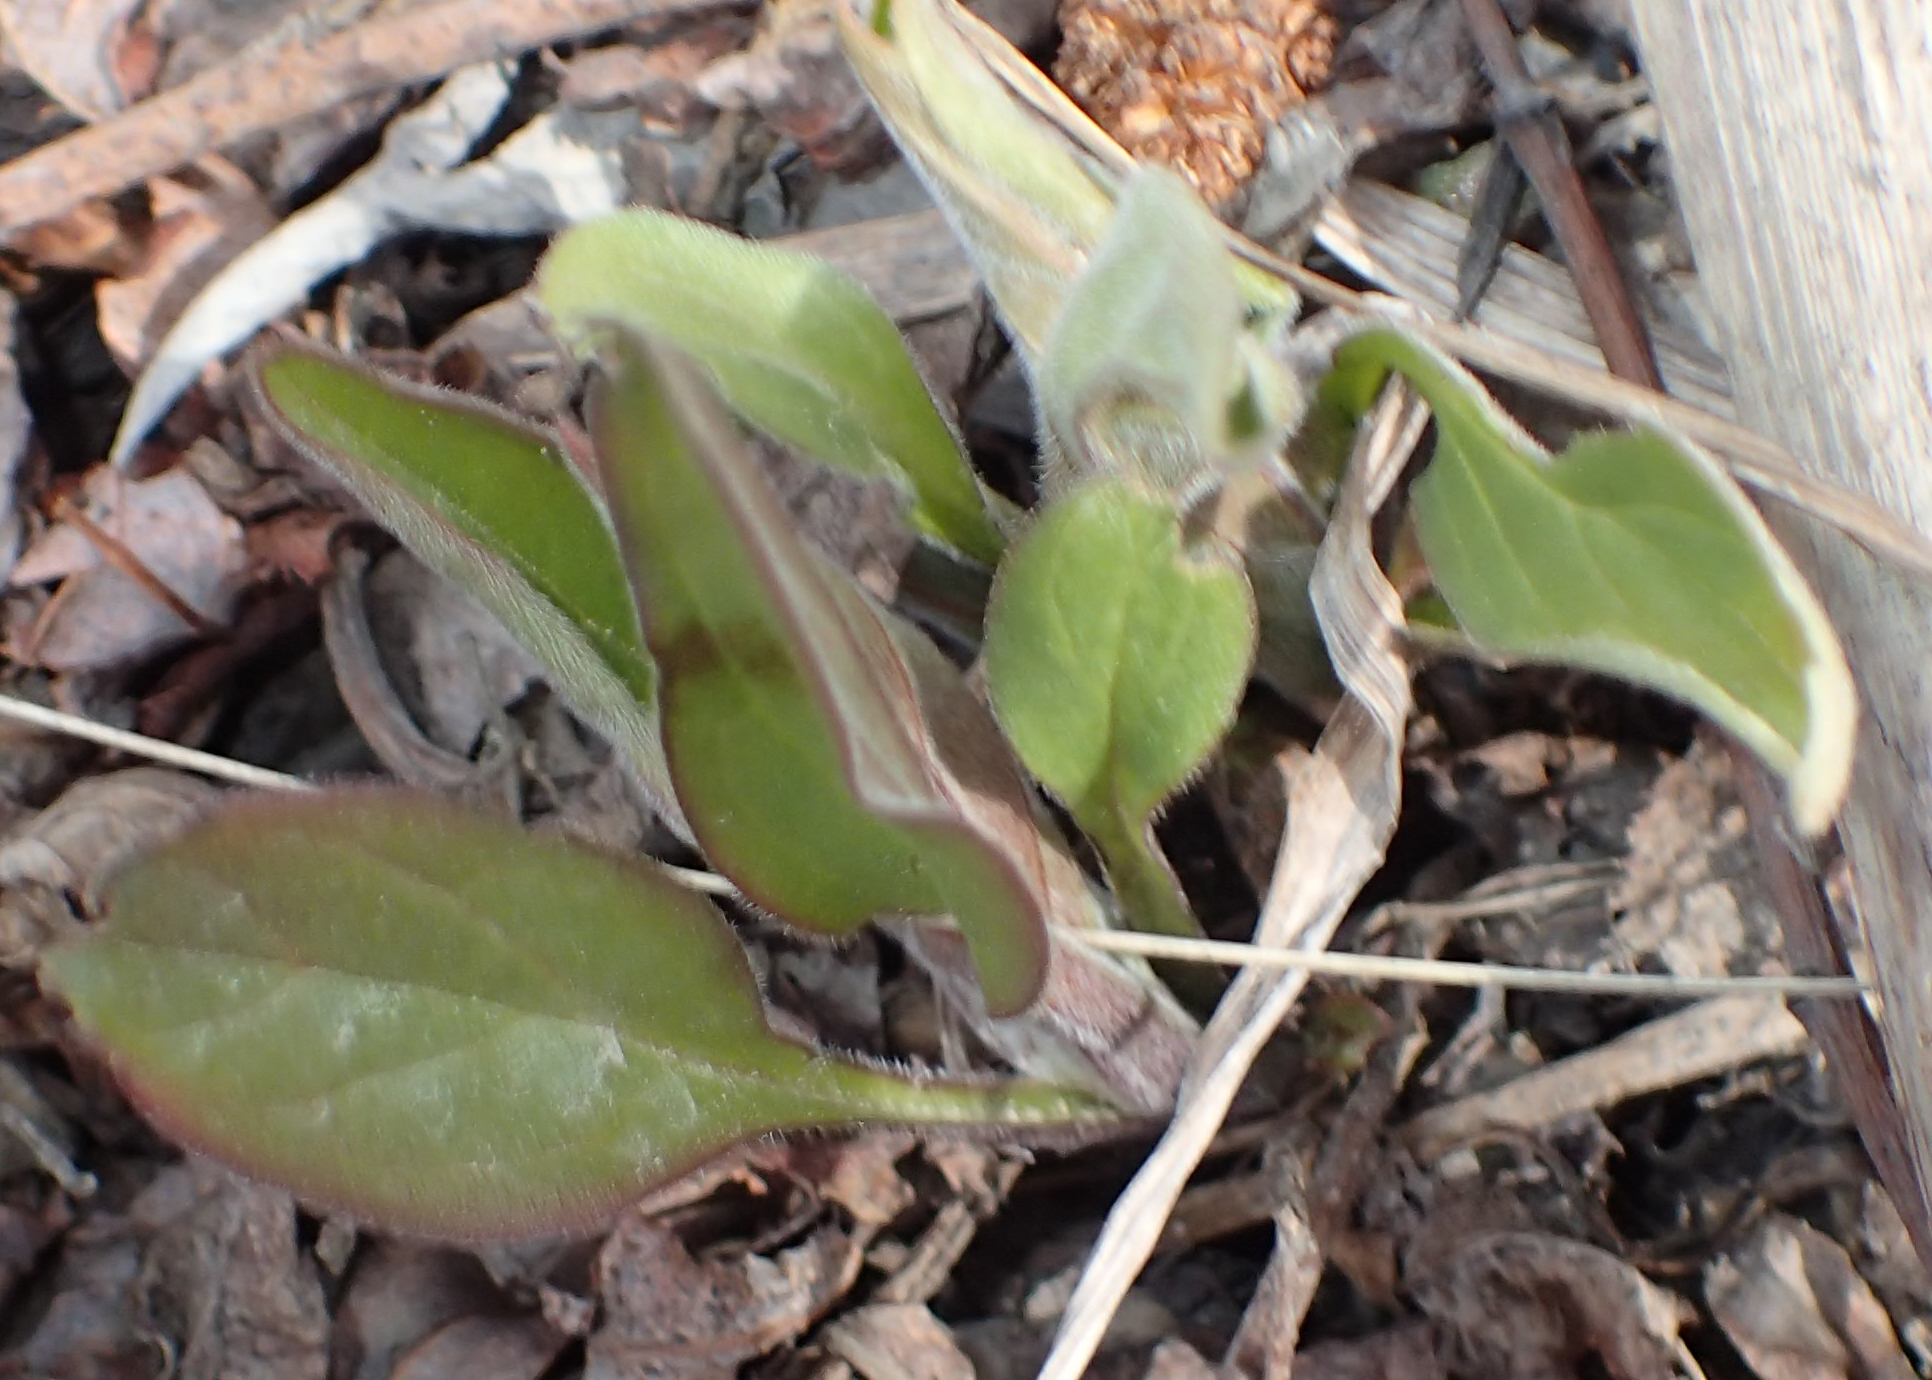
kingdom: Plantae
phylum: Tracheophyta
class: Magnoliopsida
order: Boraginales
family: Boraginaceae
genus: Mertensia
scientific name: Mertensia paniculata
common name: Panicled bluebells
